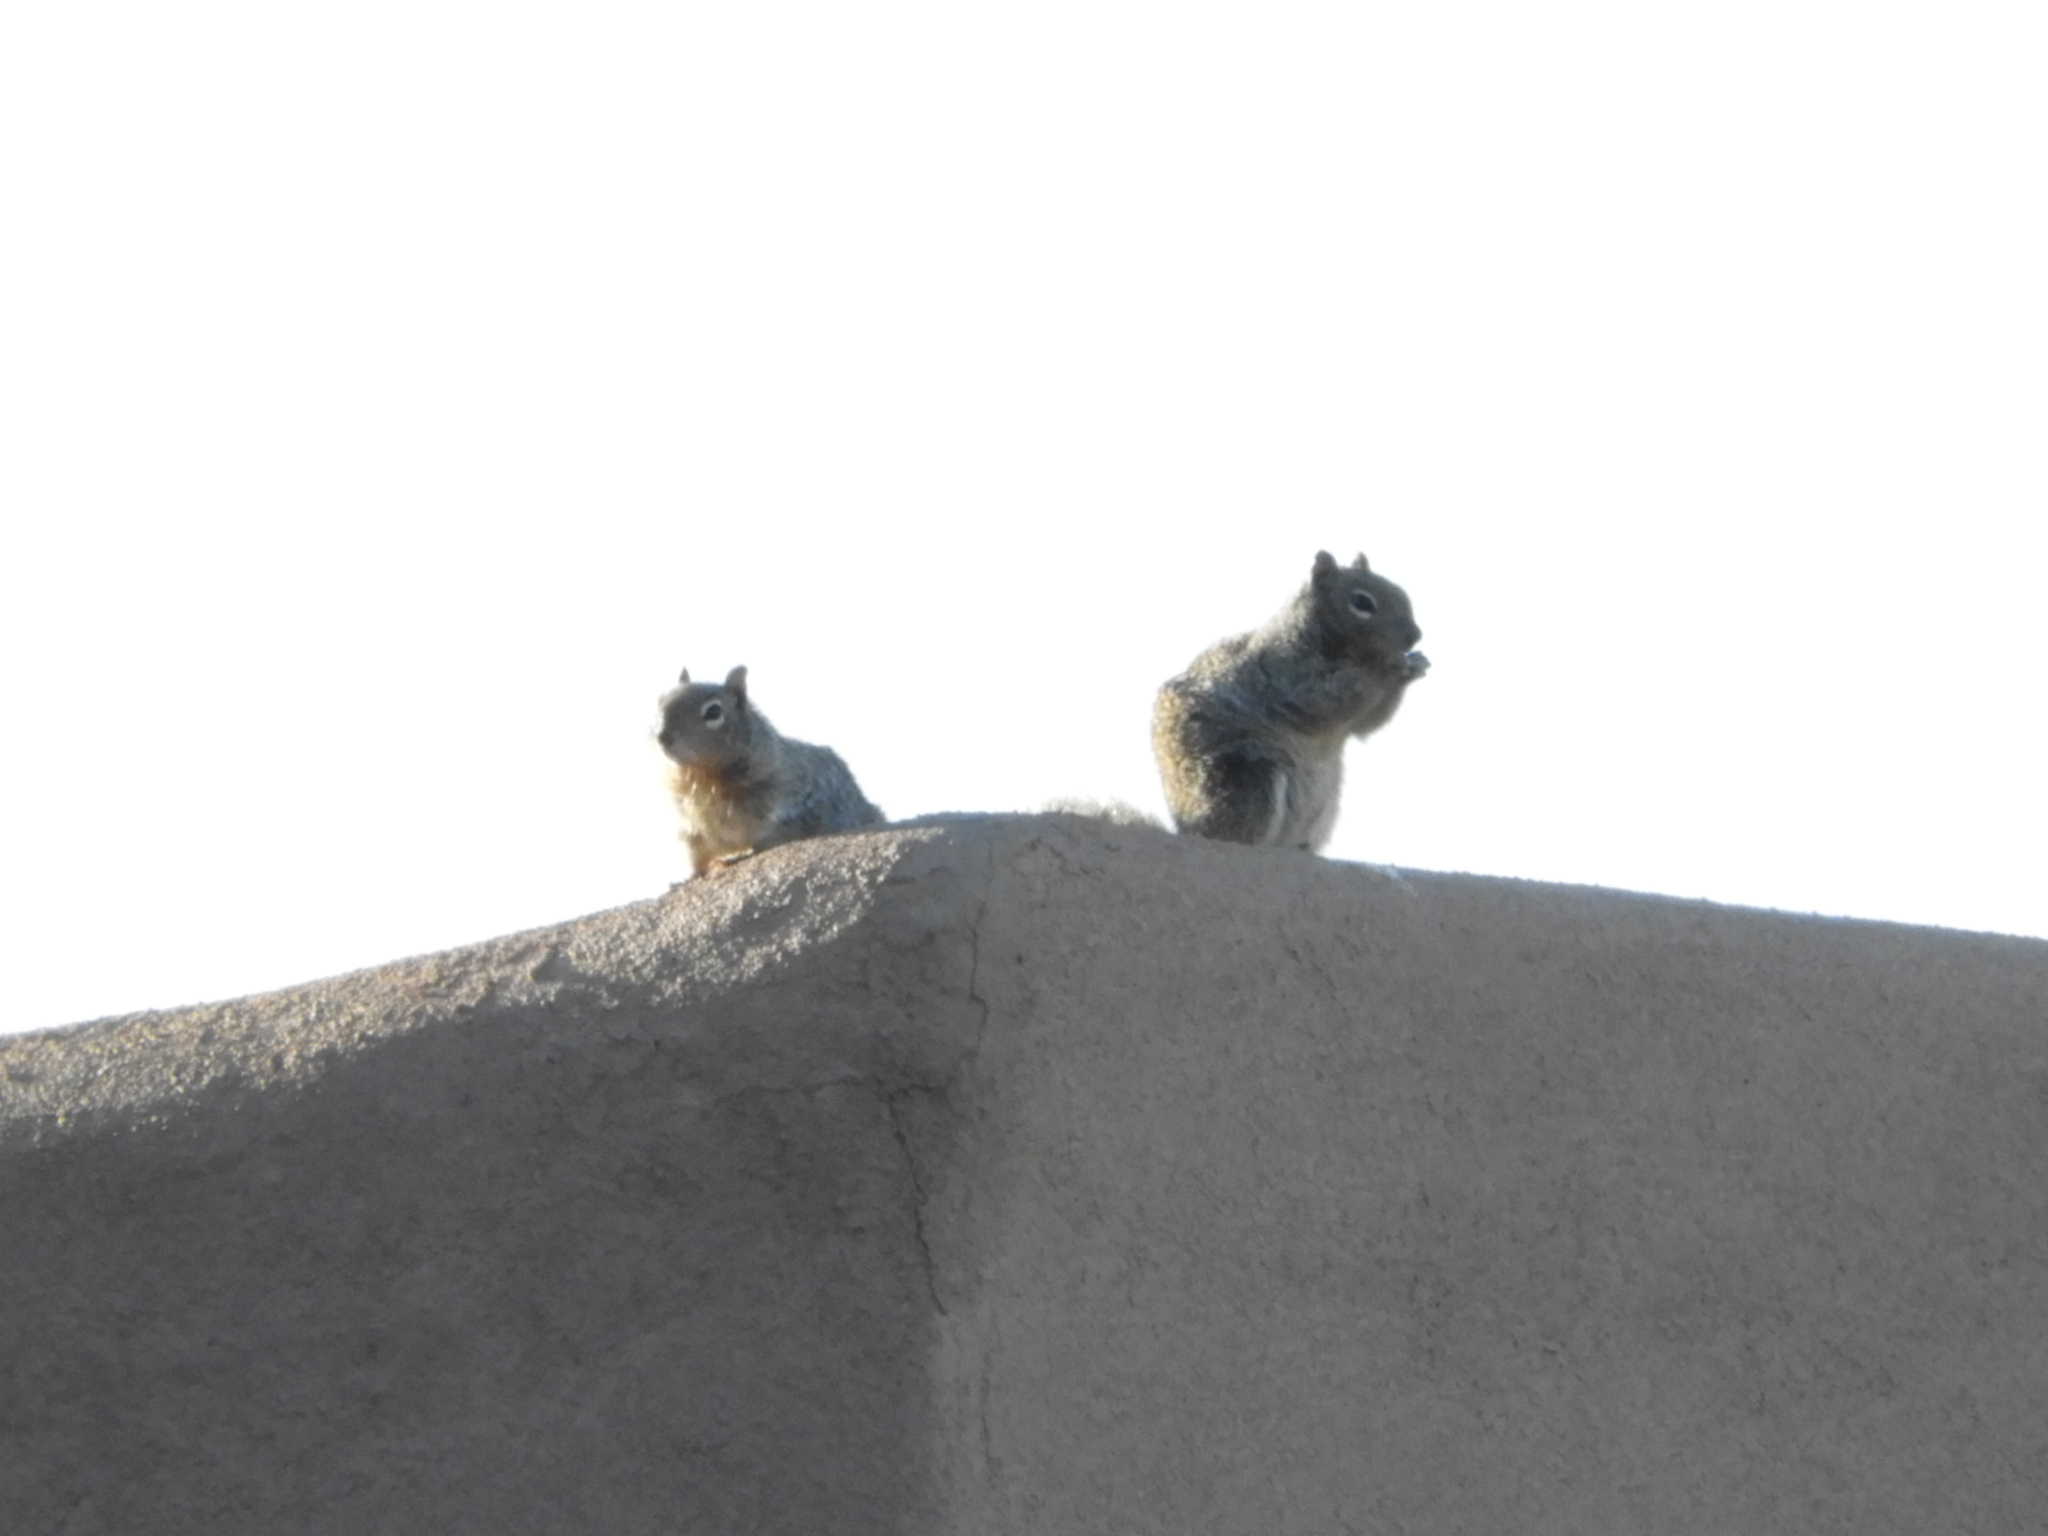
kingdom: Animalia
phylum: Chordata
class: Mammalia
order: Rodentia
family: Sciuridae
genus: Otospermophilus
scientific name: Otospermophilus variegatus
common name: Rock squirrel
